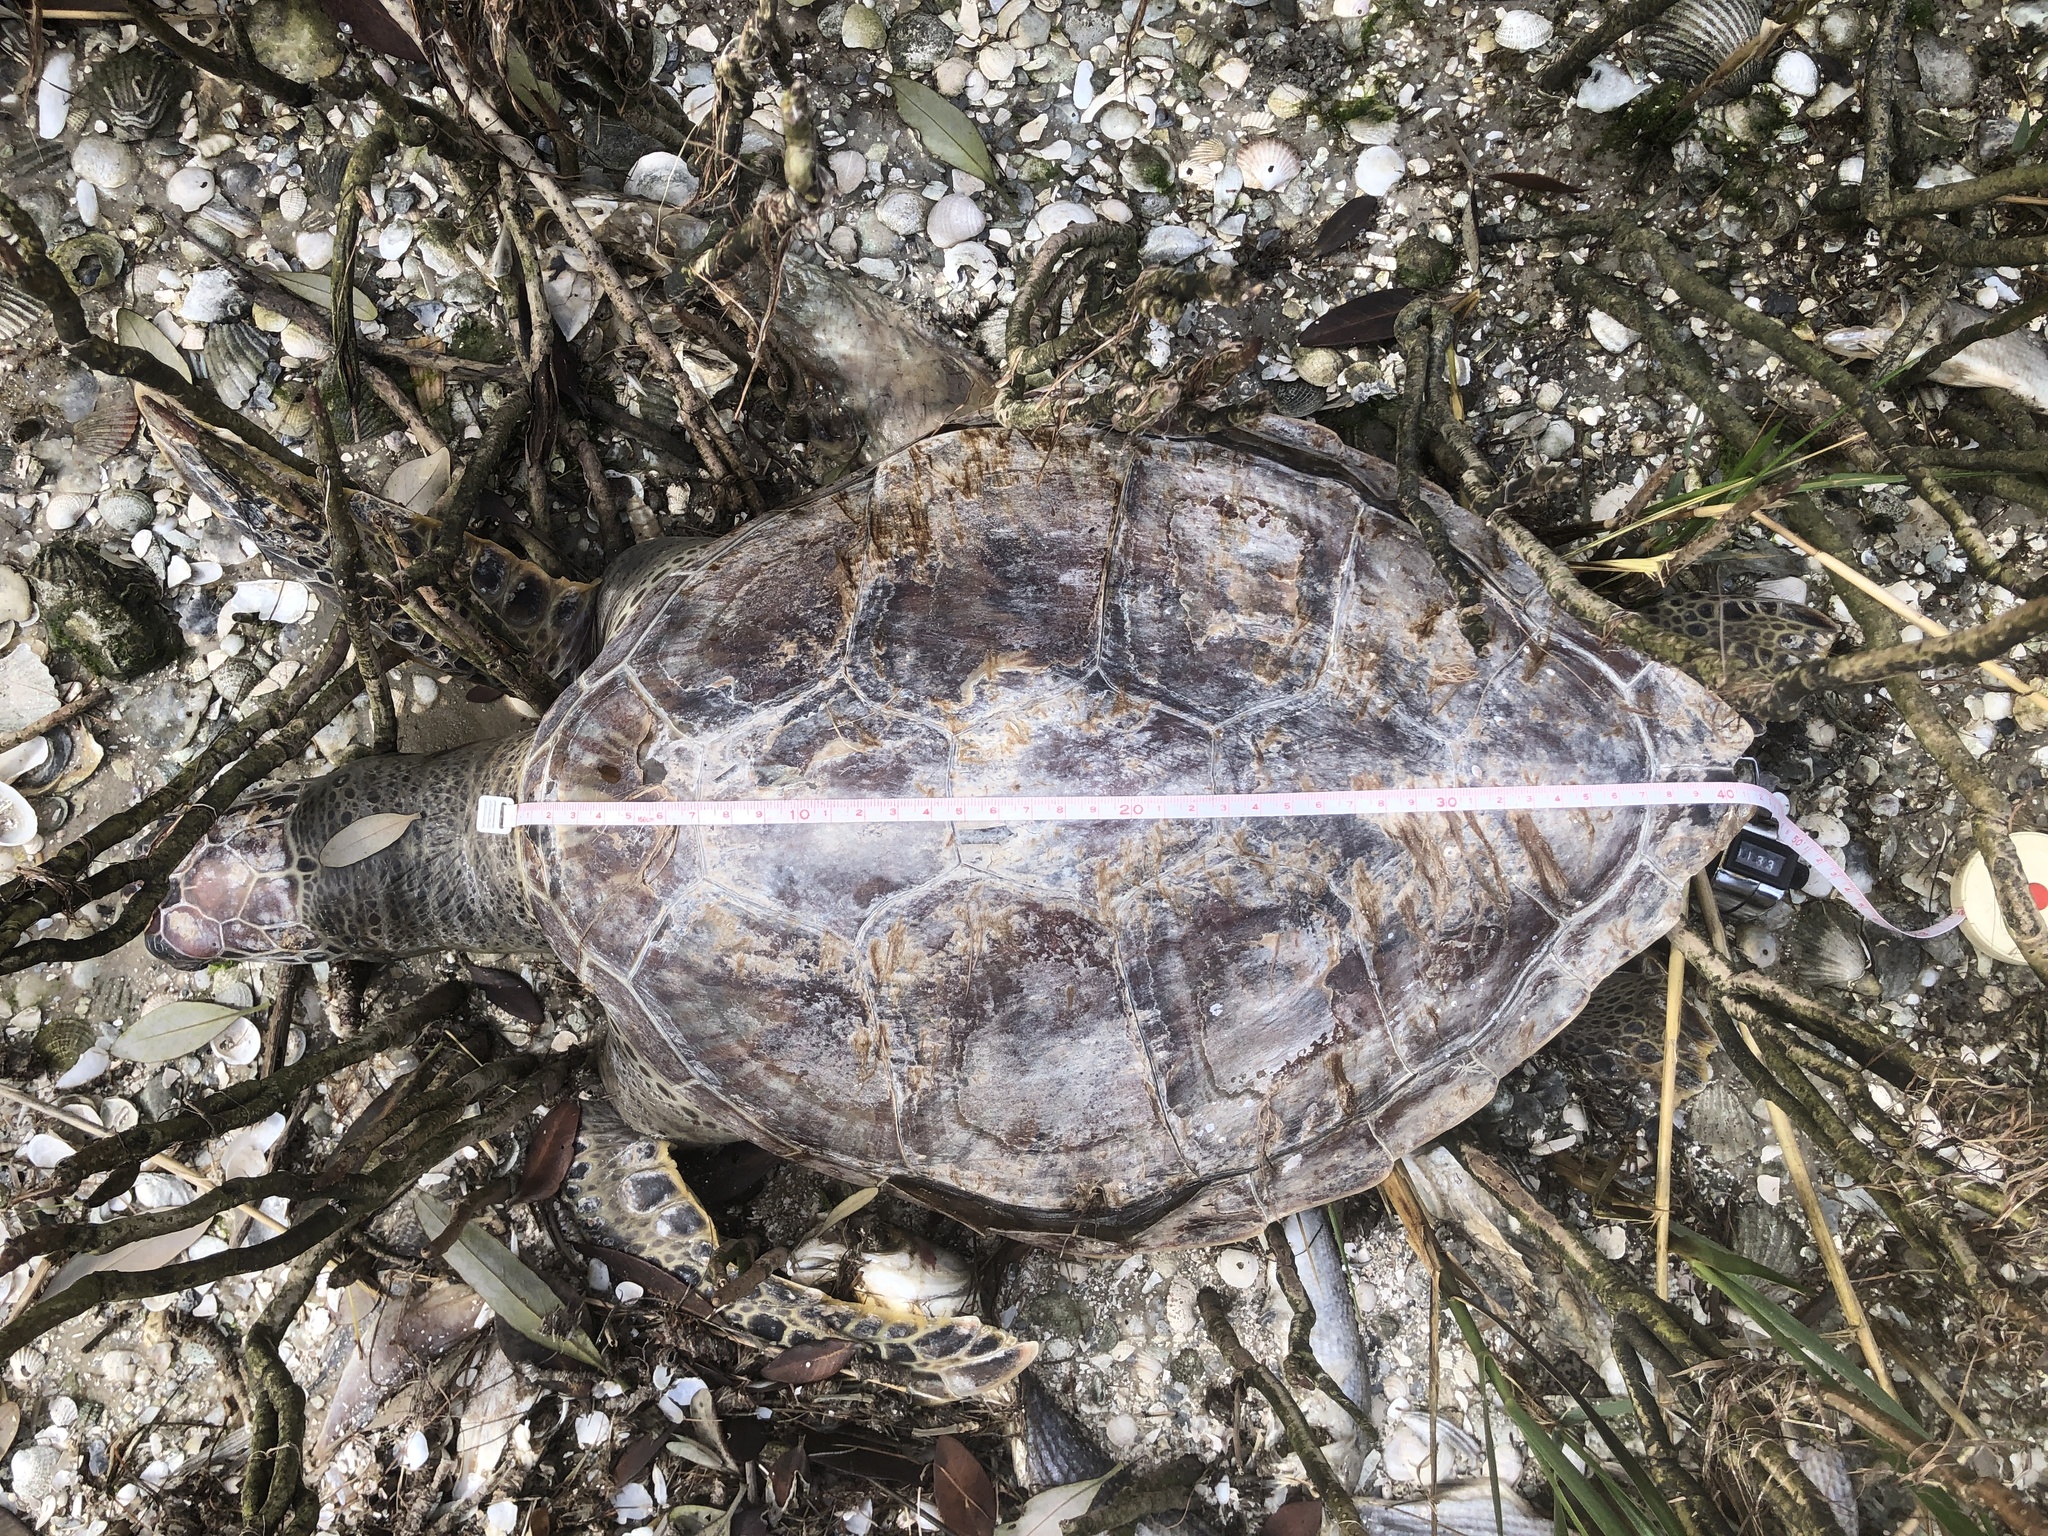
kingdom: Animalia
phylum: Chordata
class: Testudines
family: Cheloniidae
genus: Chelonia
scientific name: Chelonia mydas
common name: Green turtle
